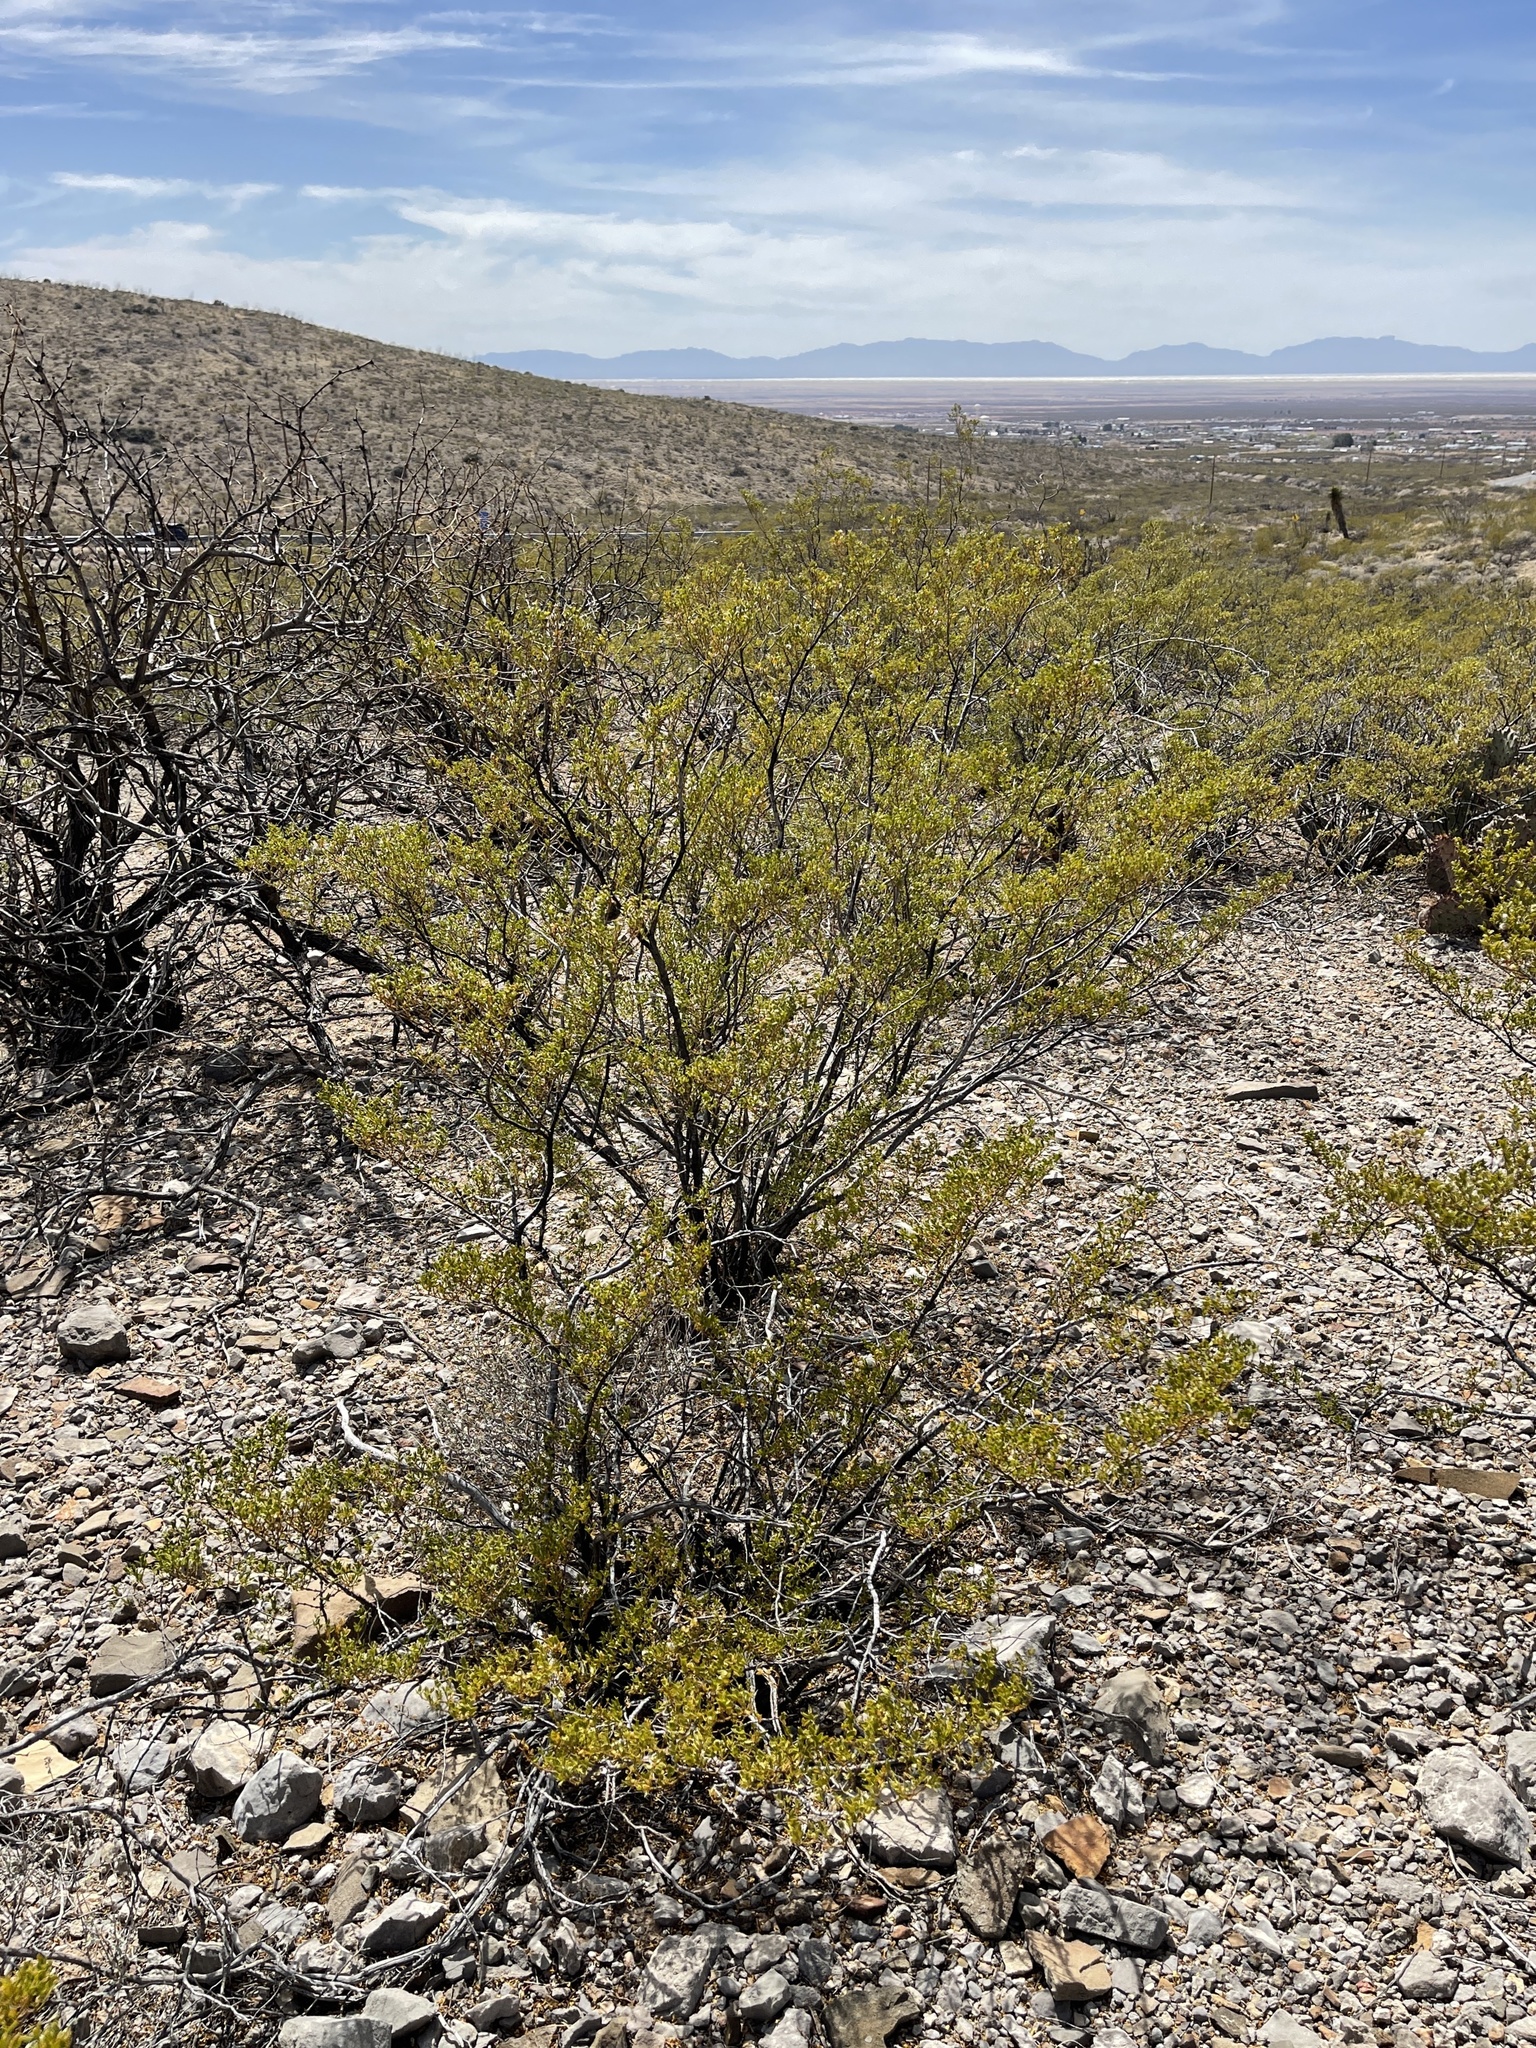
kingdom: Plantae
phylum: Tracheophyta
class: Magnoliopsida
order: Zygophyllales
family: Zygophyllaceae
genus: Larrea
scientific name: Larrea tridentata
